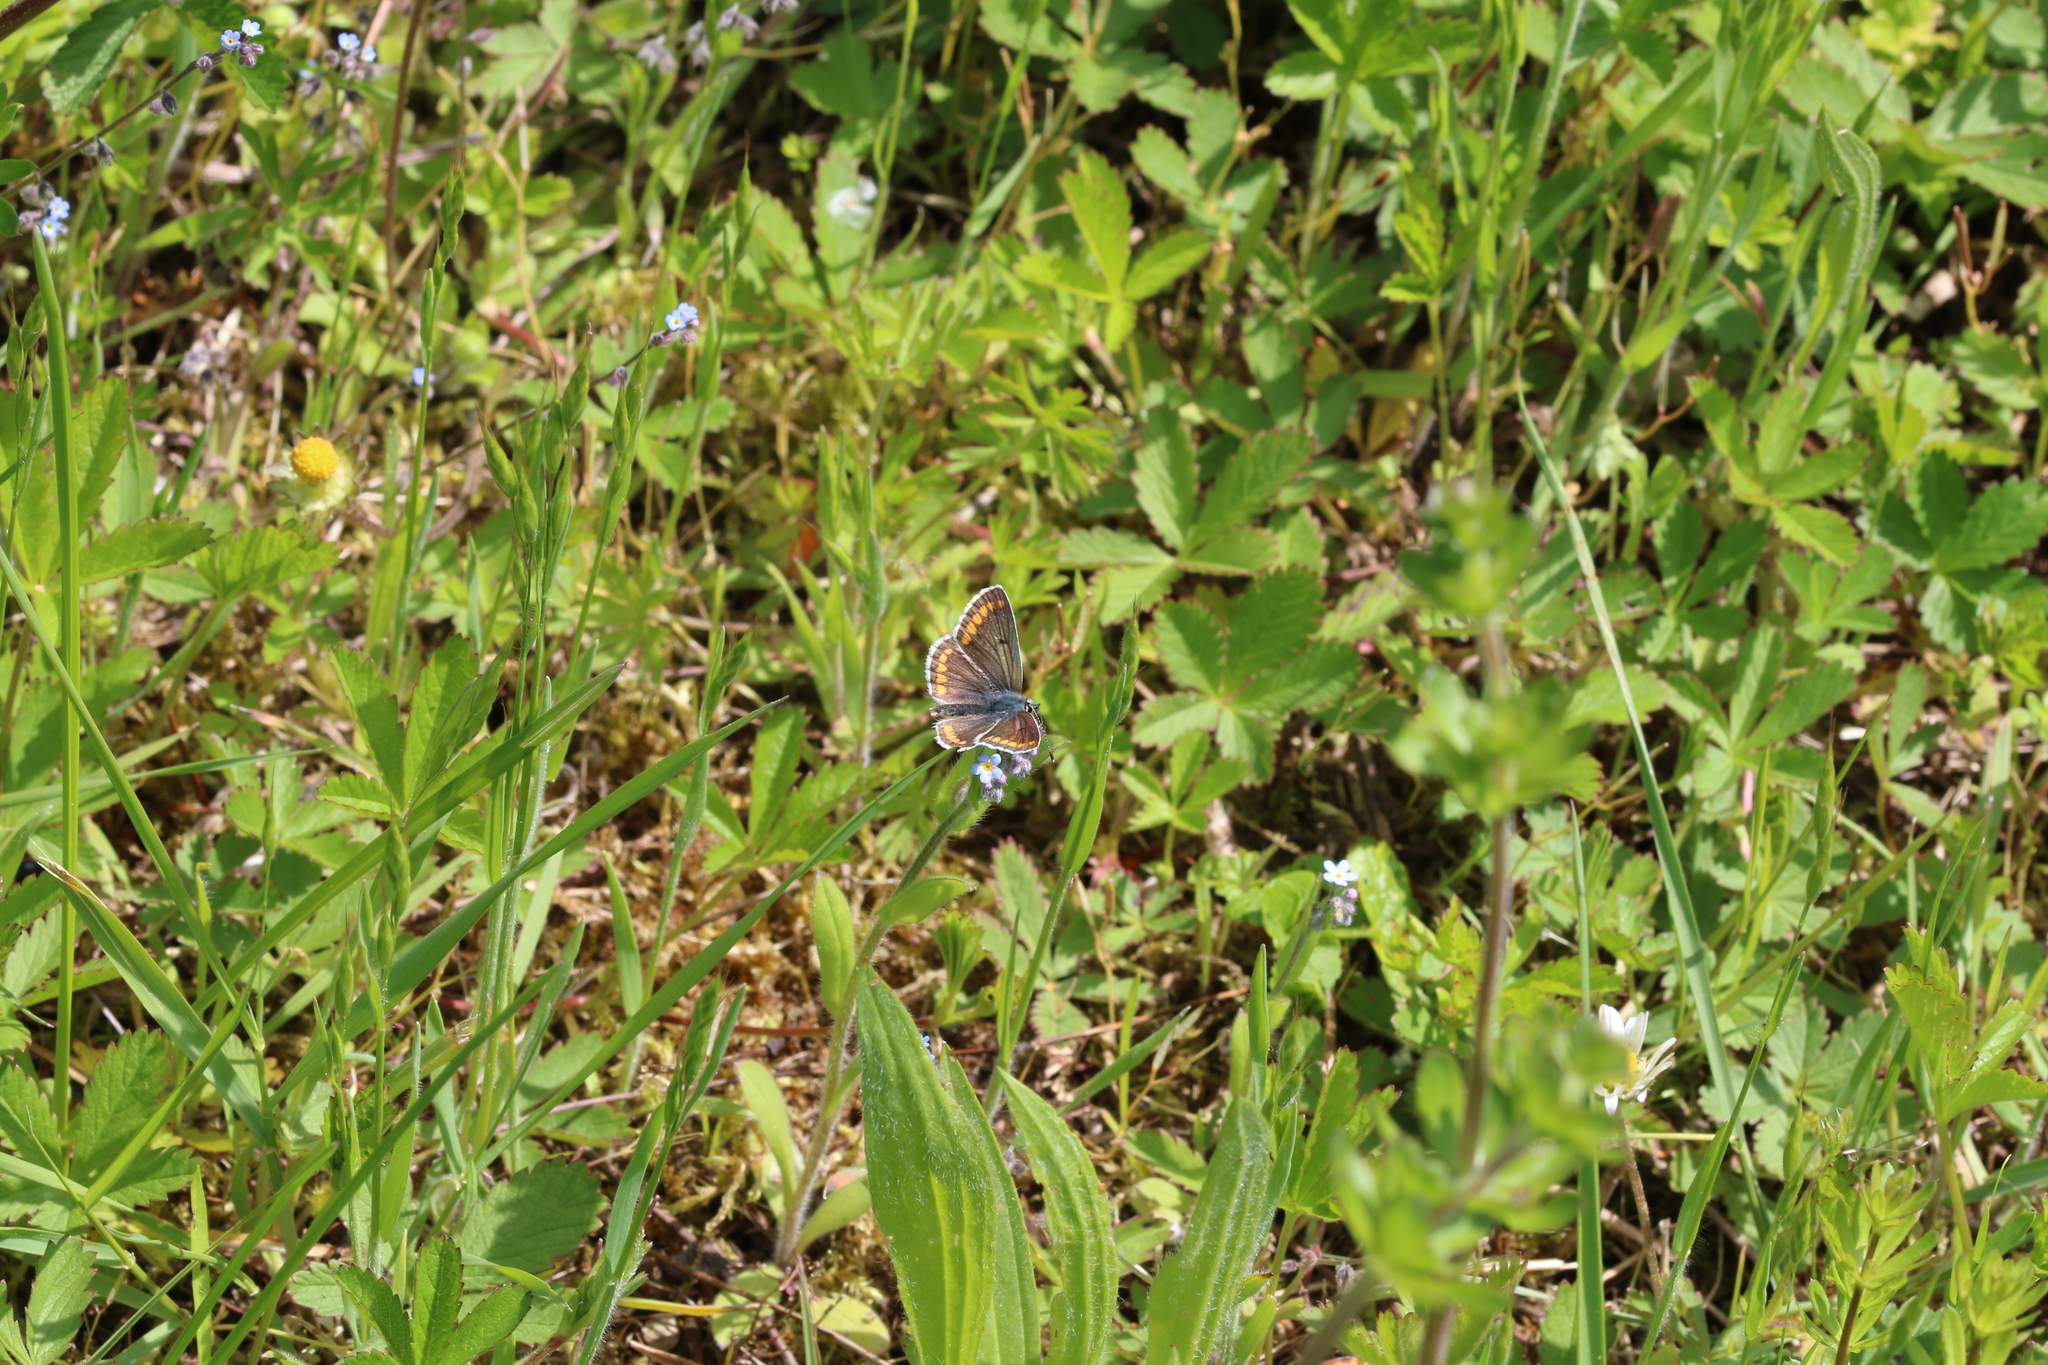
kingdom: Animalia
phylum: Arthropoda
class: Insecta
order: Lepidoptera
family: Lycaenidae
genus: Aricia
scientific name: Aricia agestis
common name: Brown argus
